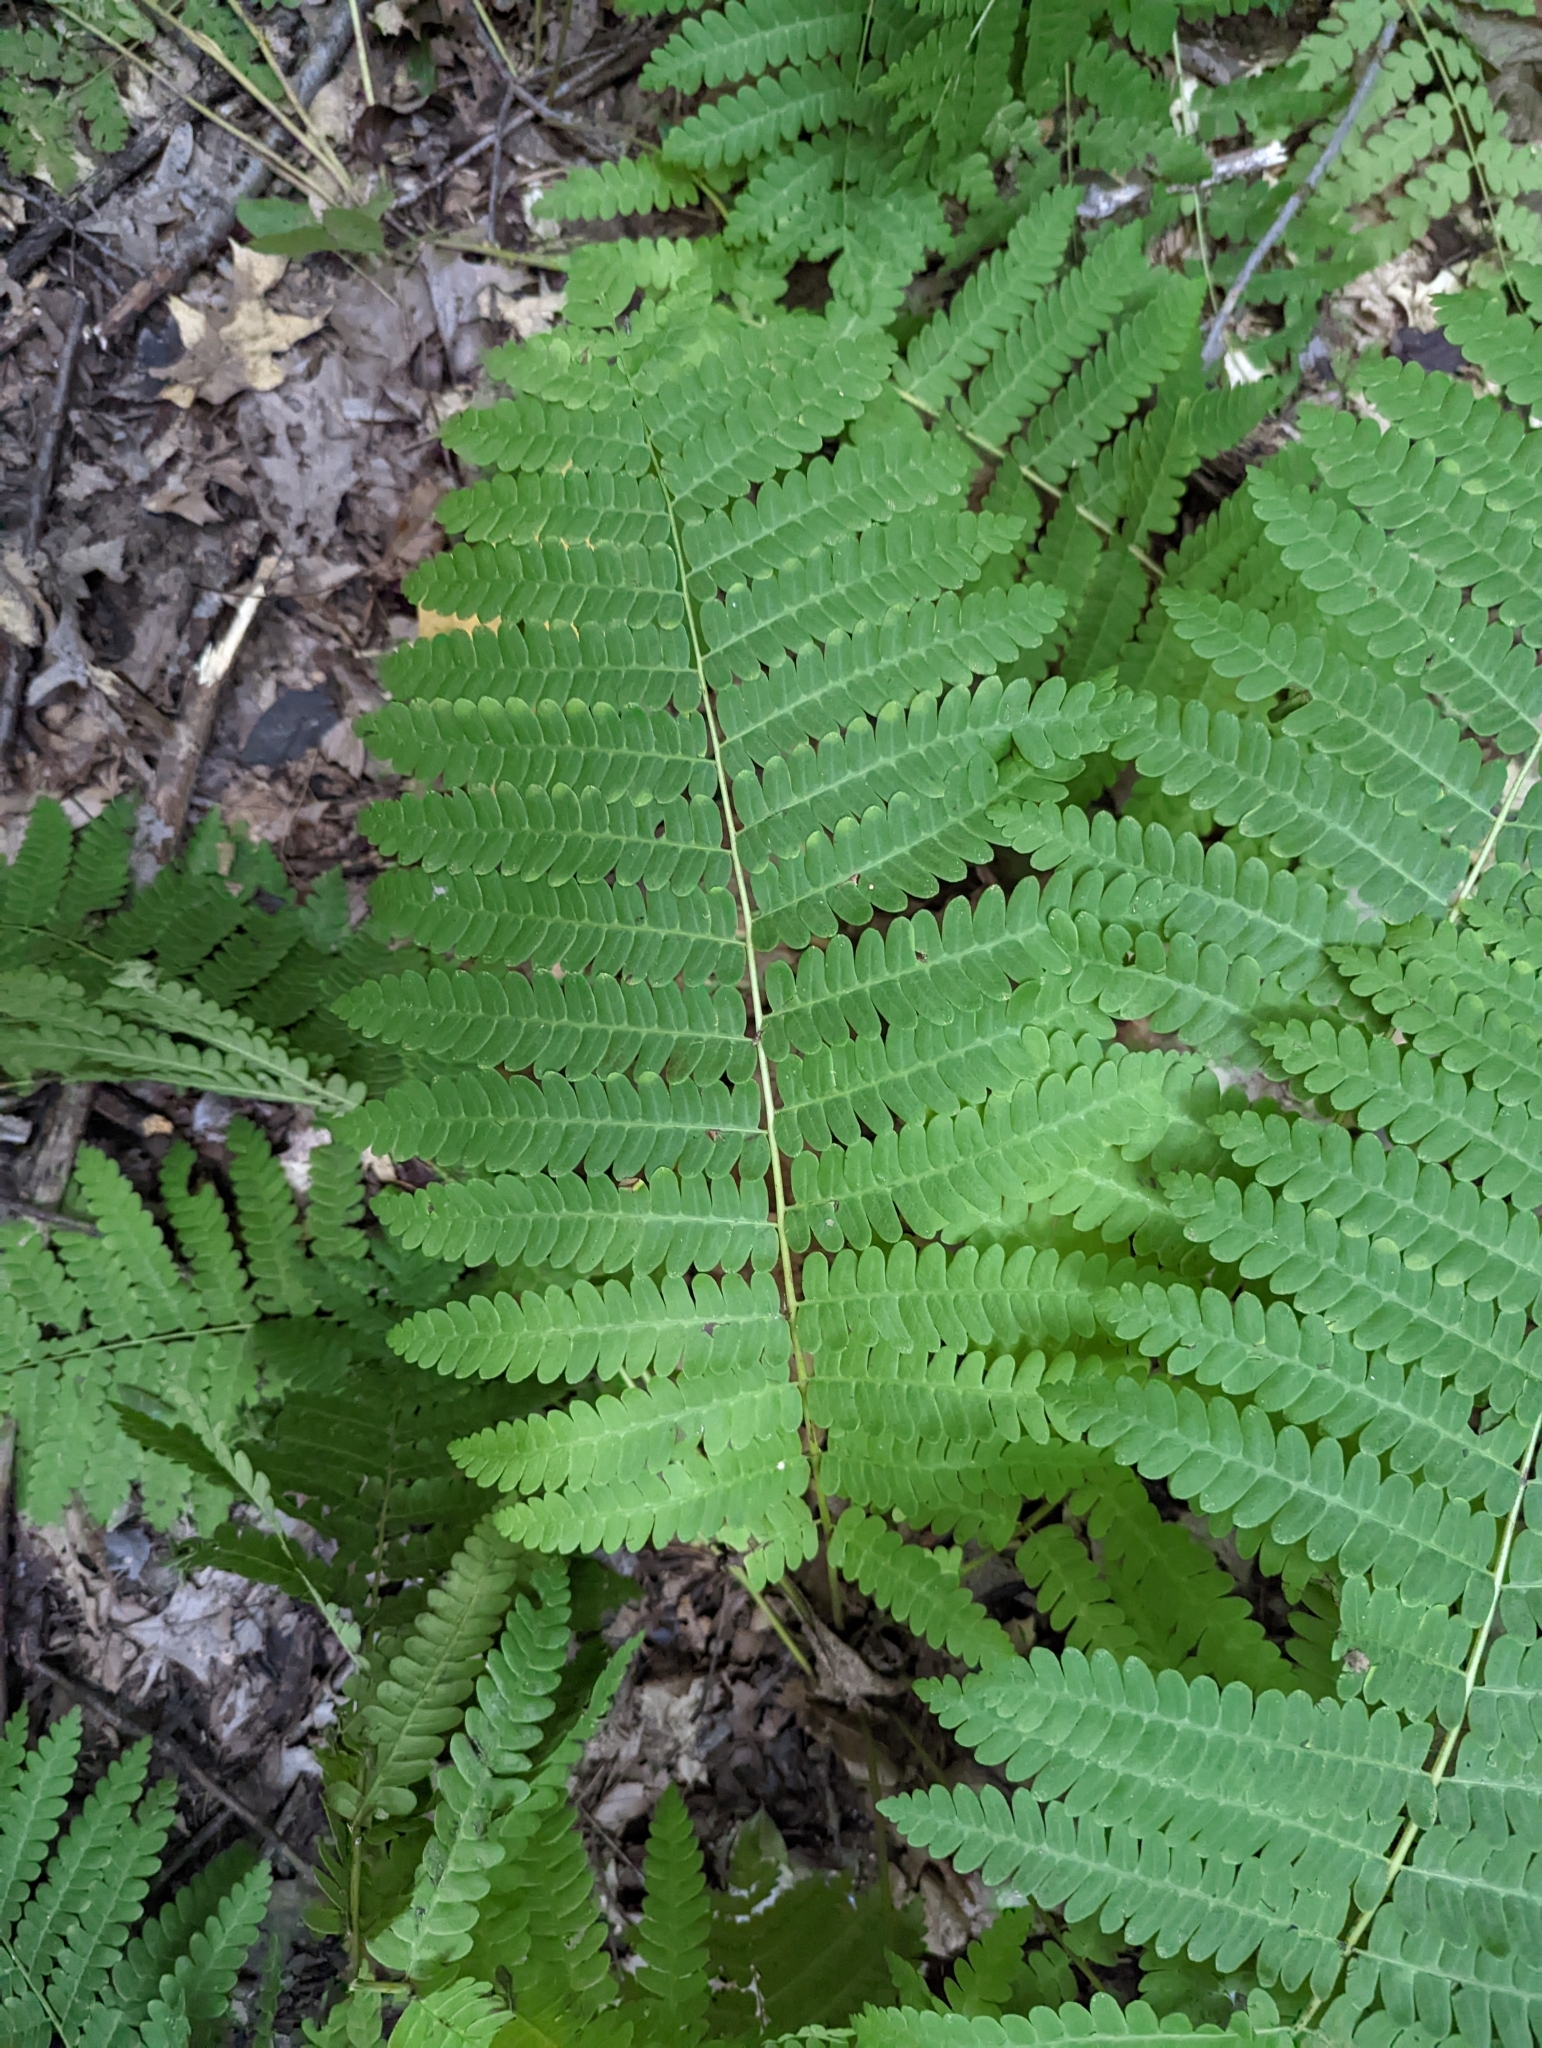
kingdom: Plantae
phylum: Tracheophyta
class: Polypodiopsida
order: Osmundales
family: Osmundaceae
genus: Claytosmunda
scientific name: Claytosmunda claytoniana
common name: Clayton's fern
